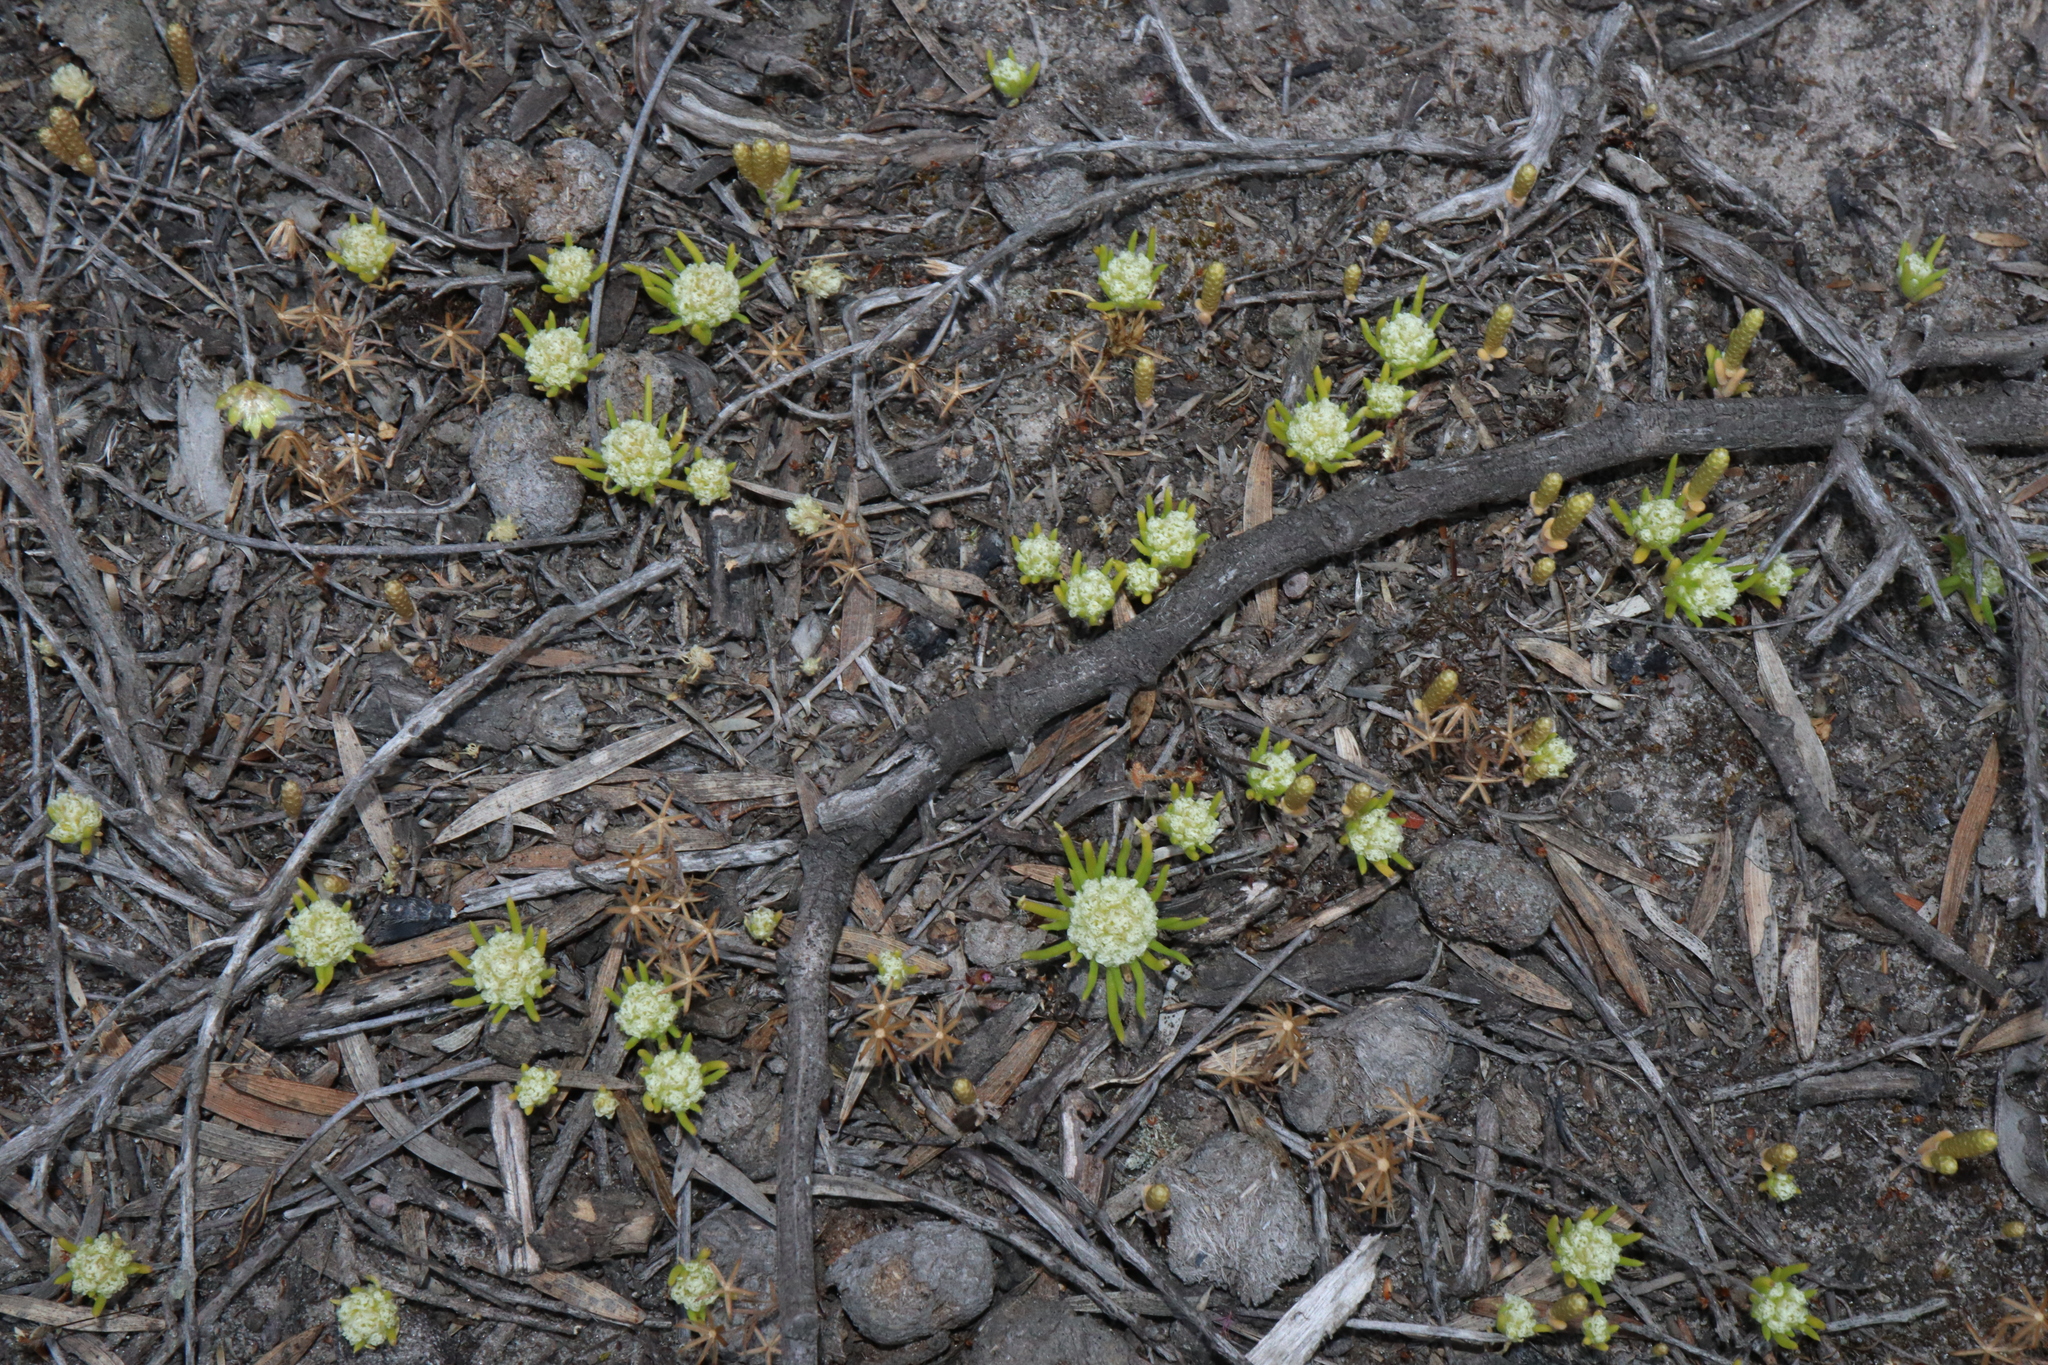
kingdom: Plantae
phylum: Tracheophyta
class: Magnoliopsida
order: Asterales
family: Asteraceae
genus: Siloxerus
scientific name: Siloxerus humifusus
